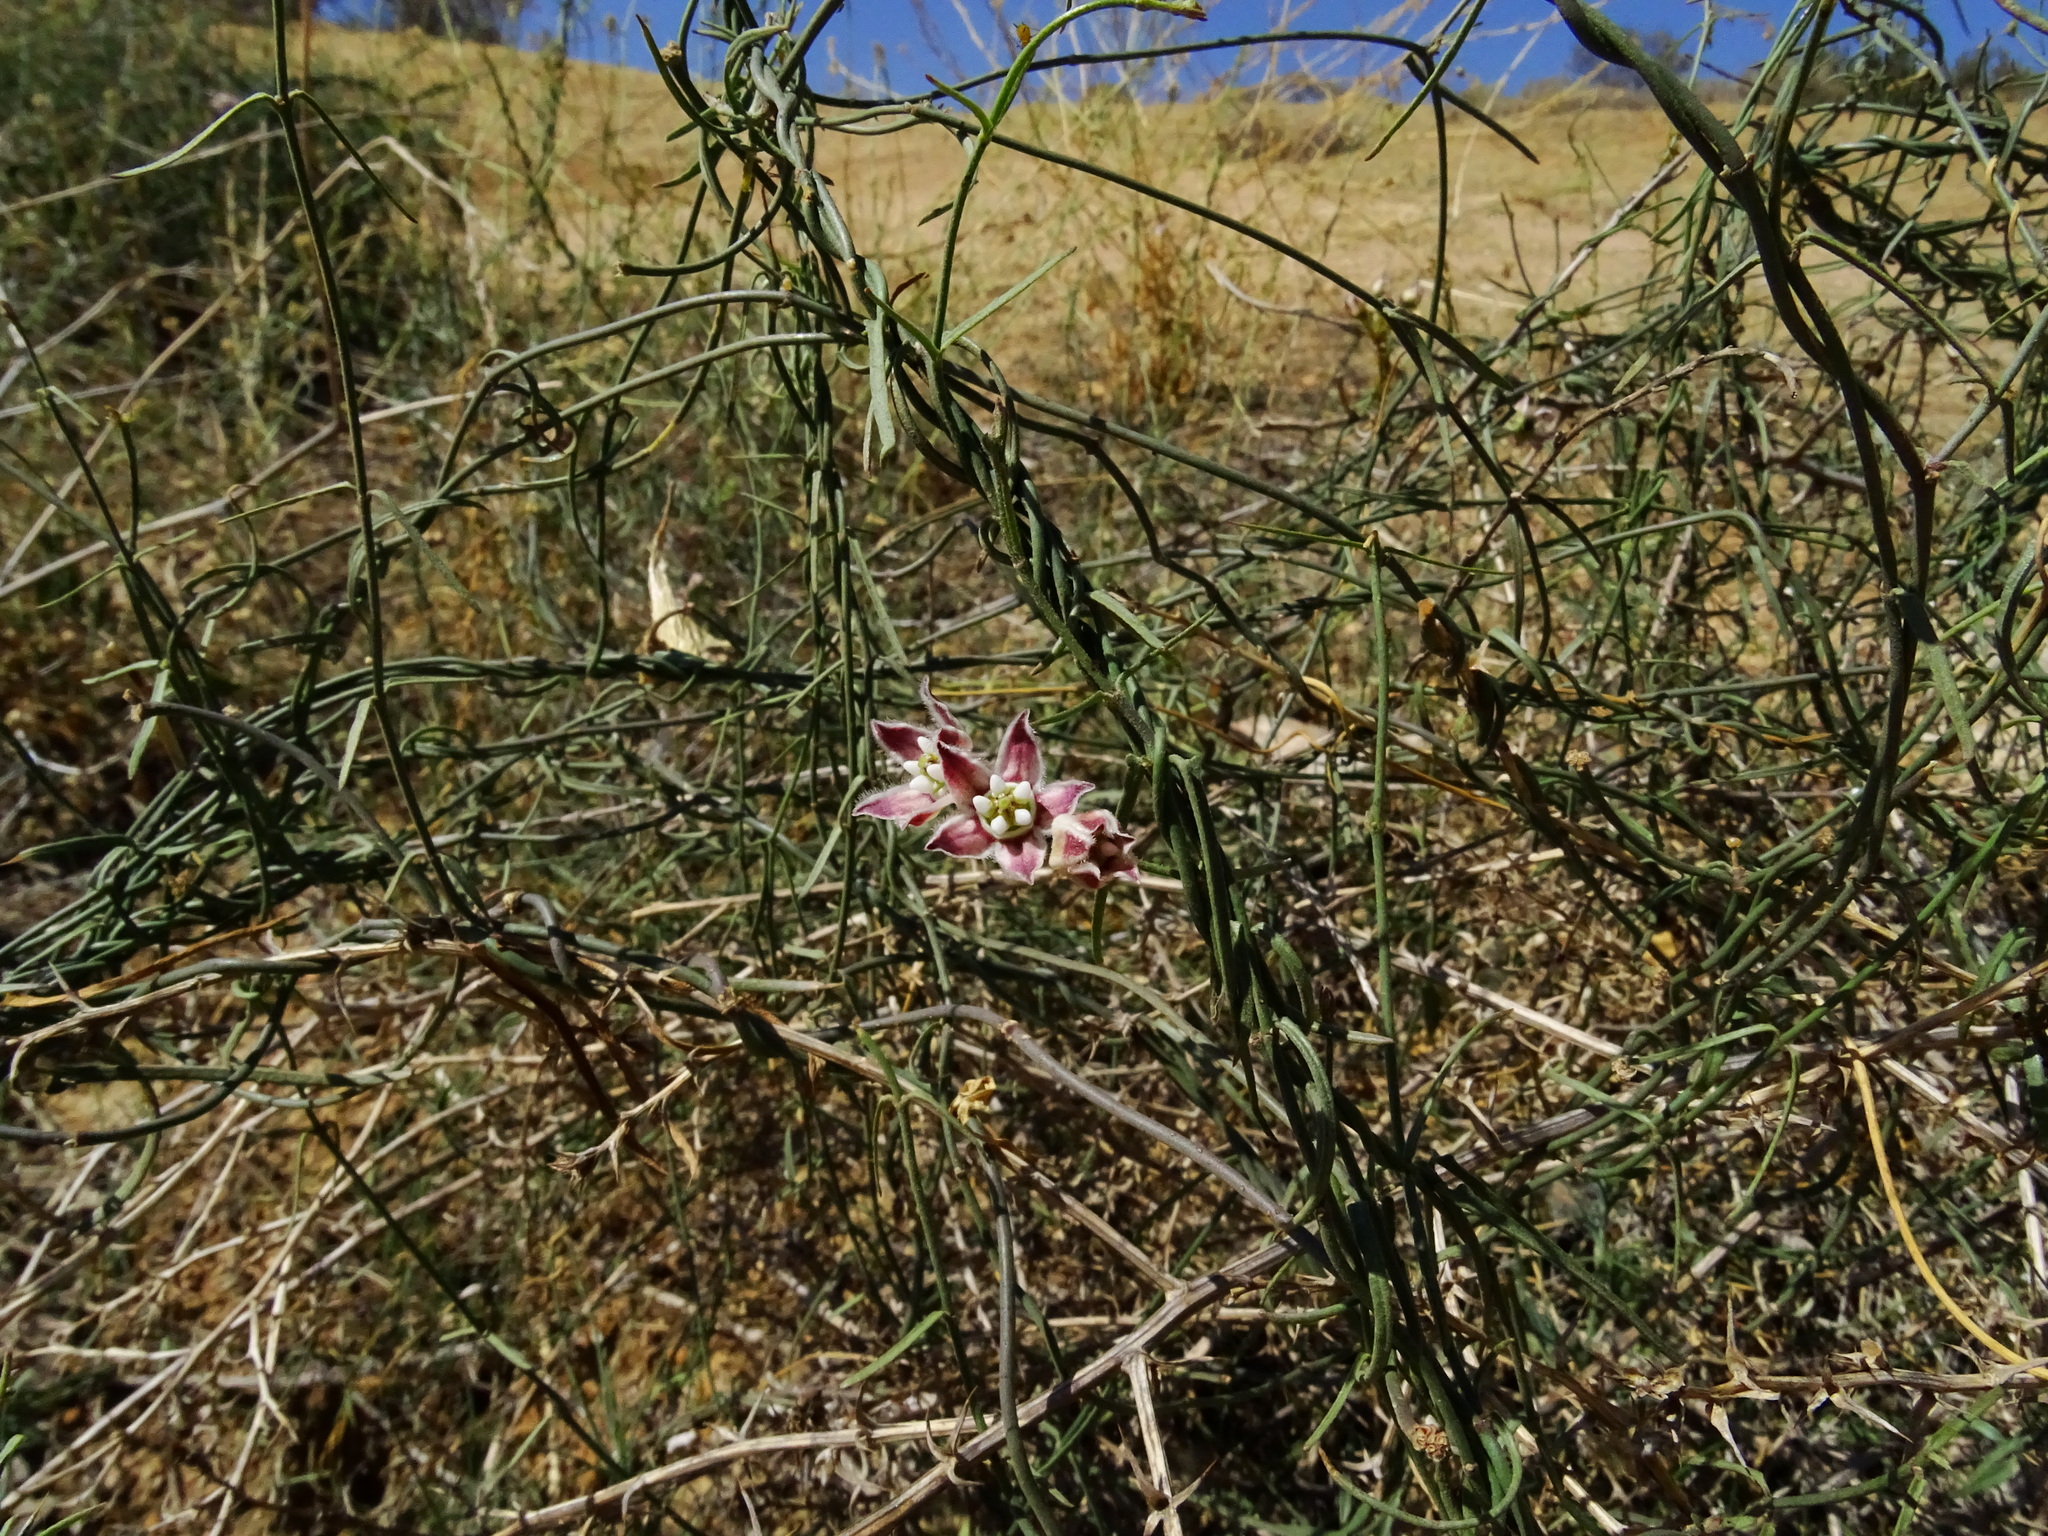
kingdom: Plantae
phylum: Tracheophyta
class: Magnoliopsida
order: Gentianales
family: Apocynaceae
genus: Funastrum
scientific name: Funastrum heterophyllum
